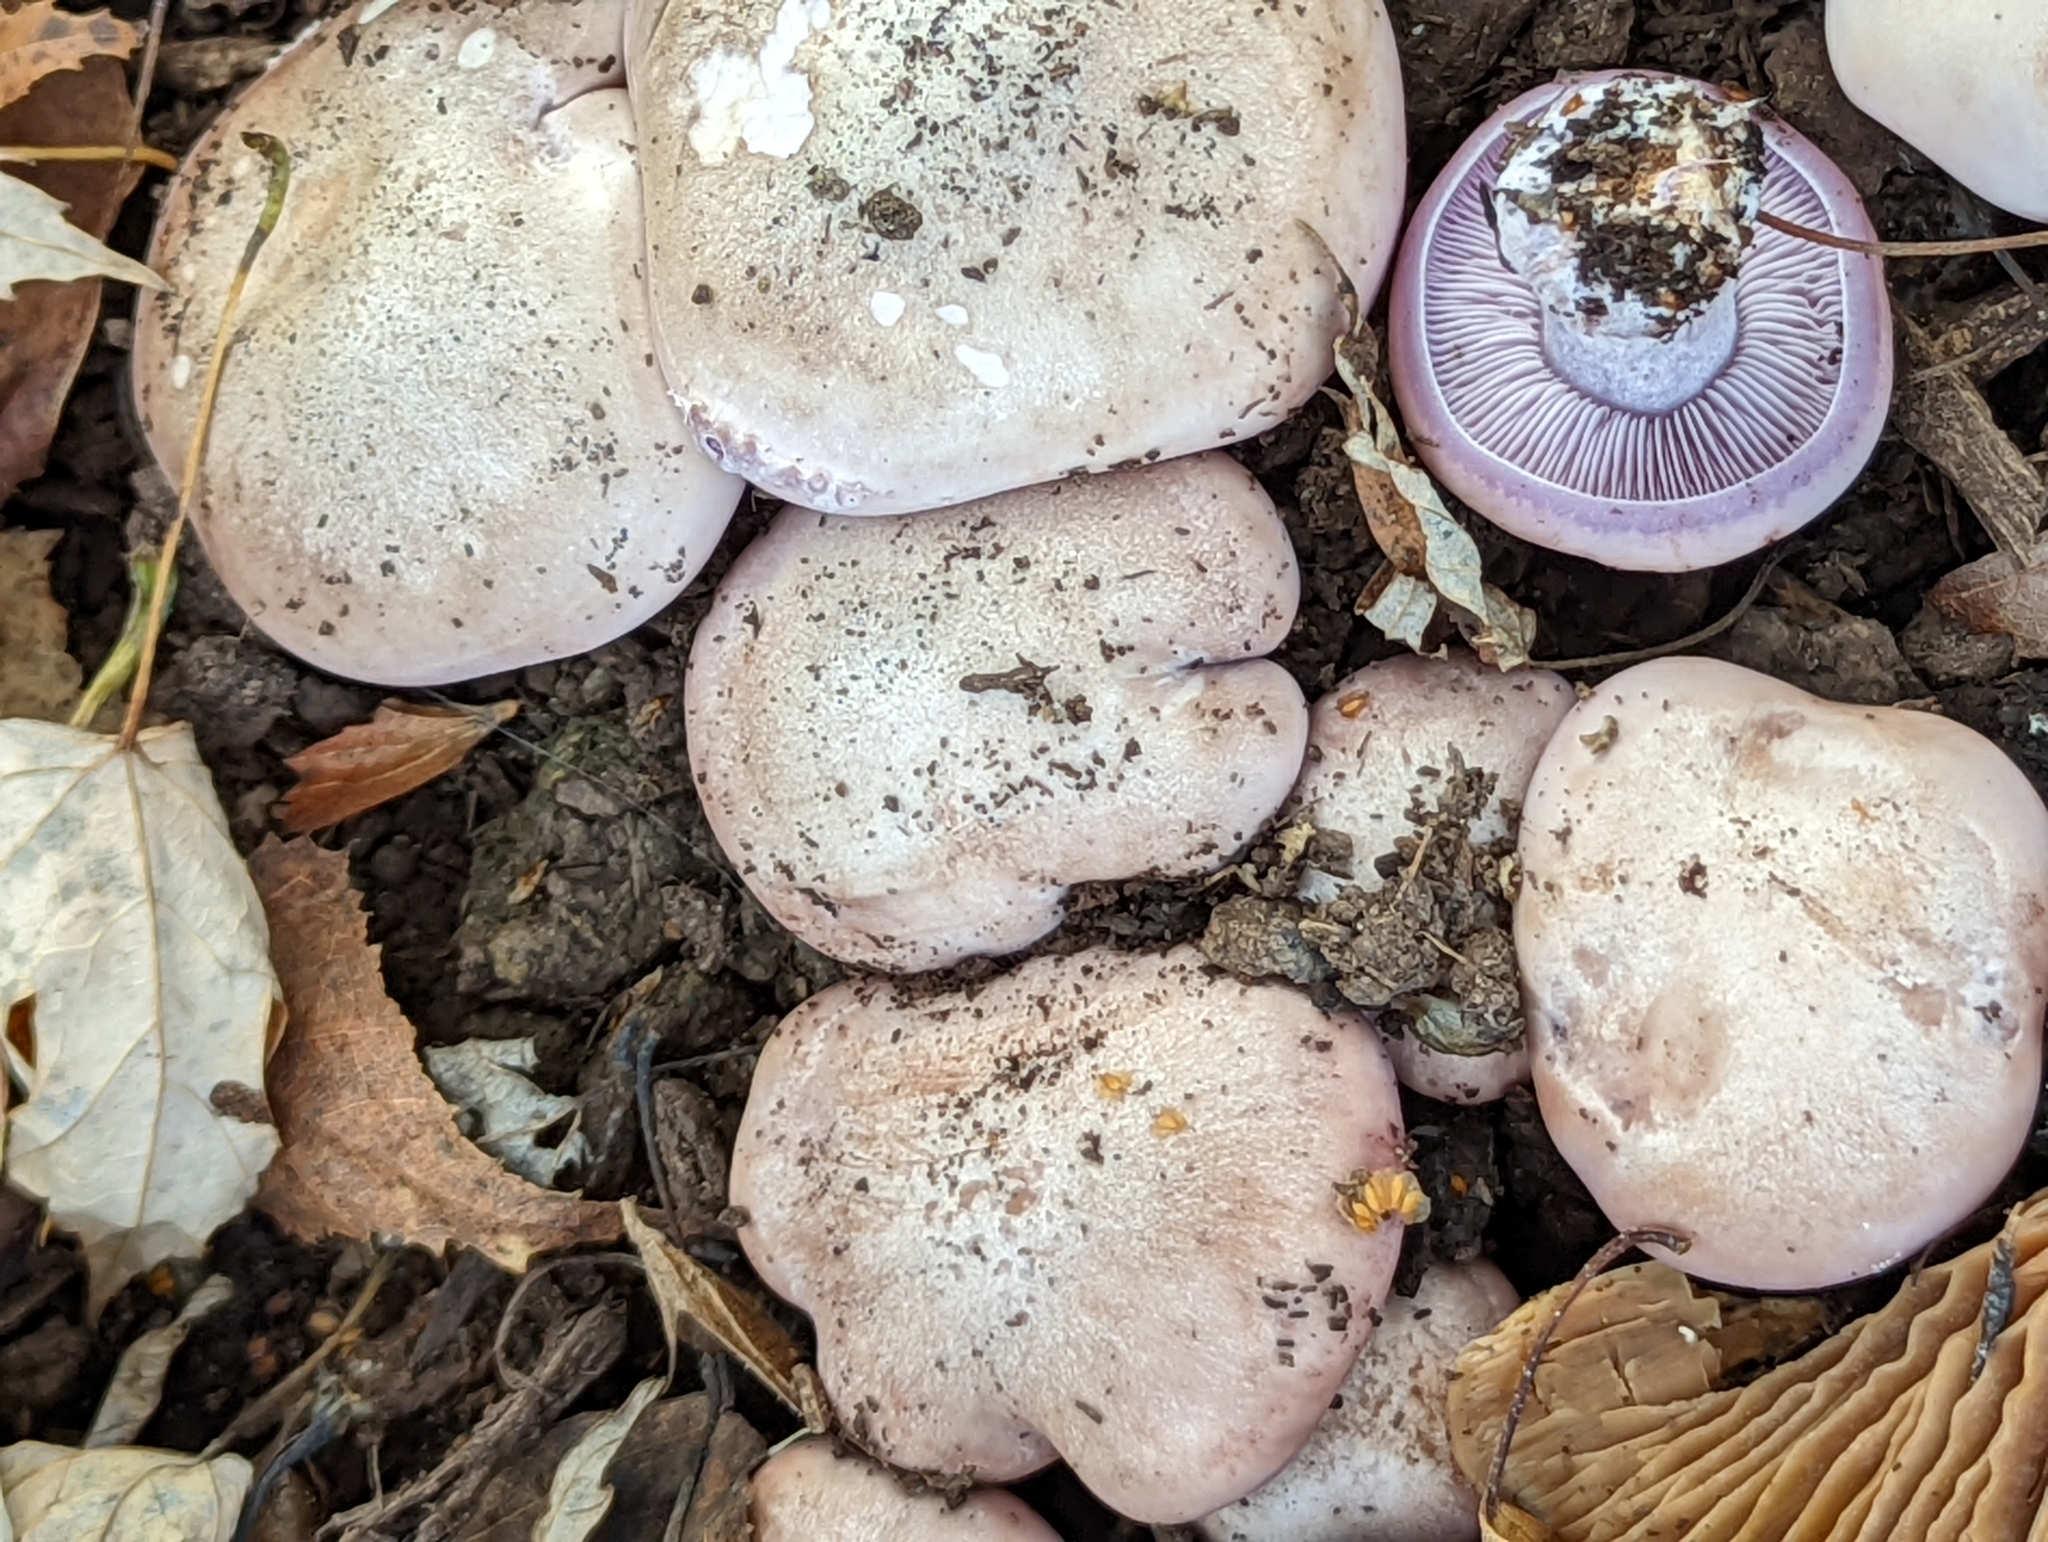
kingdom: Fungi
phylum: Basidiomycota
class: Agaricomycetes
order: Agaricales
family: Tricholomataceae
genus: Collybia
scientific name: Collybia
